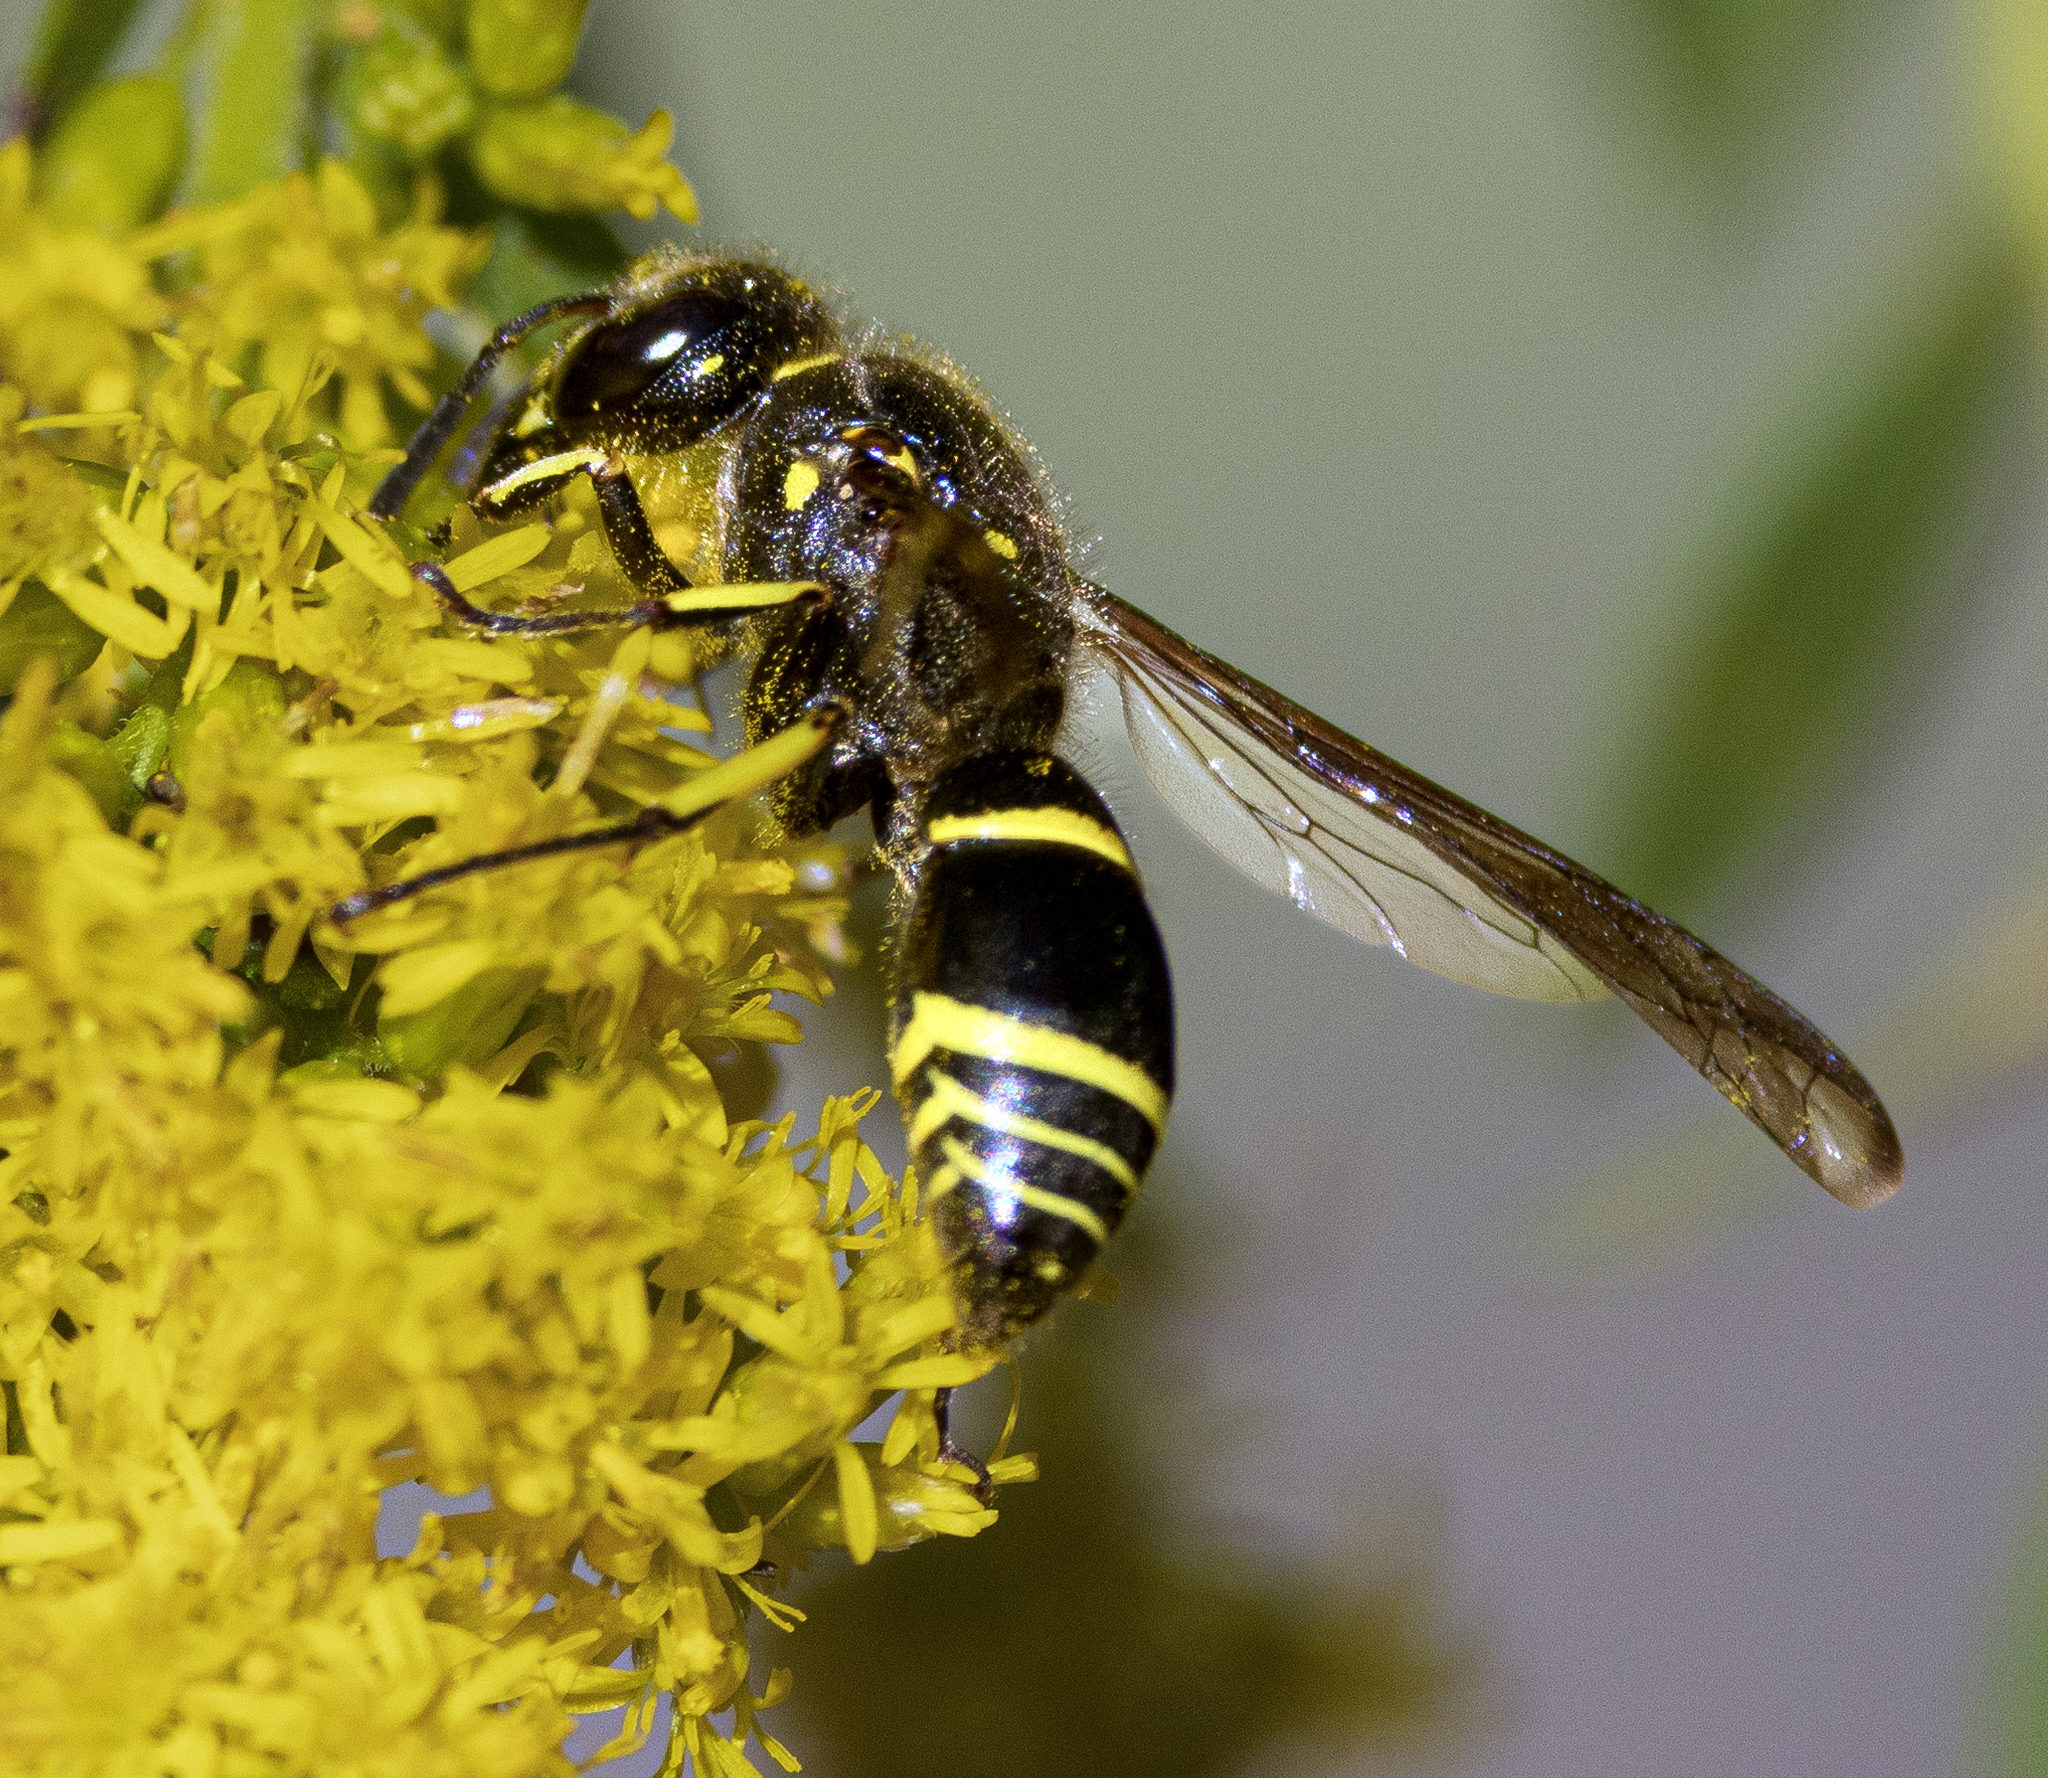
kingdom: Animalia
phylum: Arthropoda
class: Insecta
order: Hymenoptera
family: Vespidae
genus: Ancistrocerus
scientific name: Ancistrocerus
